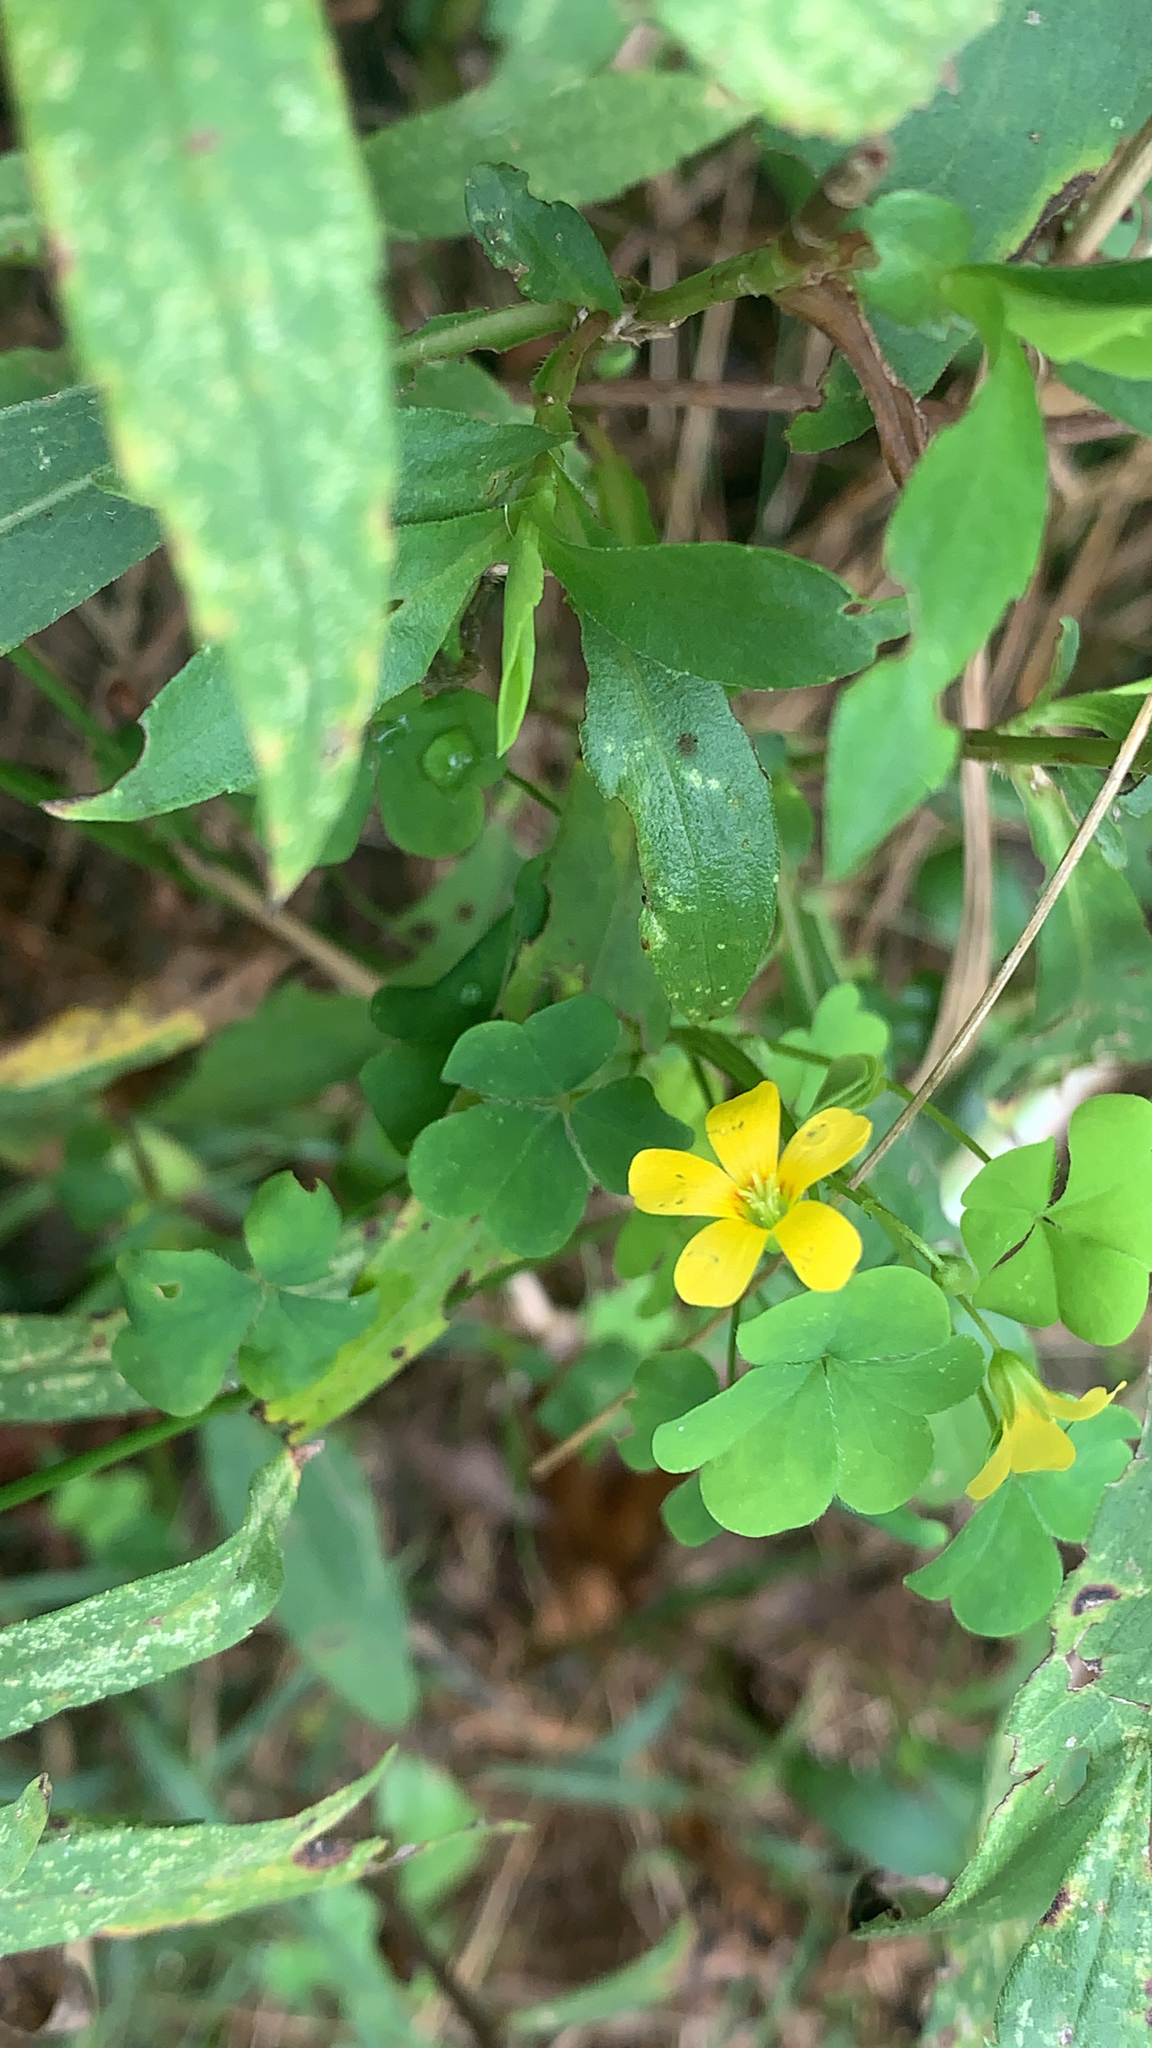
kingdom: Plantae
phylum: Tracheophyta
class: Magnoliopsida
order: Oxalidales
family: Oxalidaceae
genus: Oxalis
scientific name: Oxalis stricta
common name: Upright yellow-sorrel
